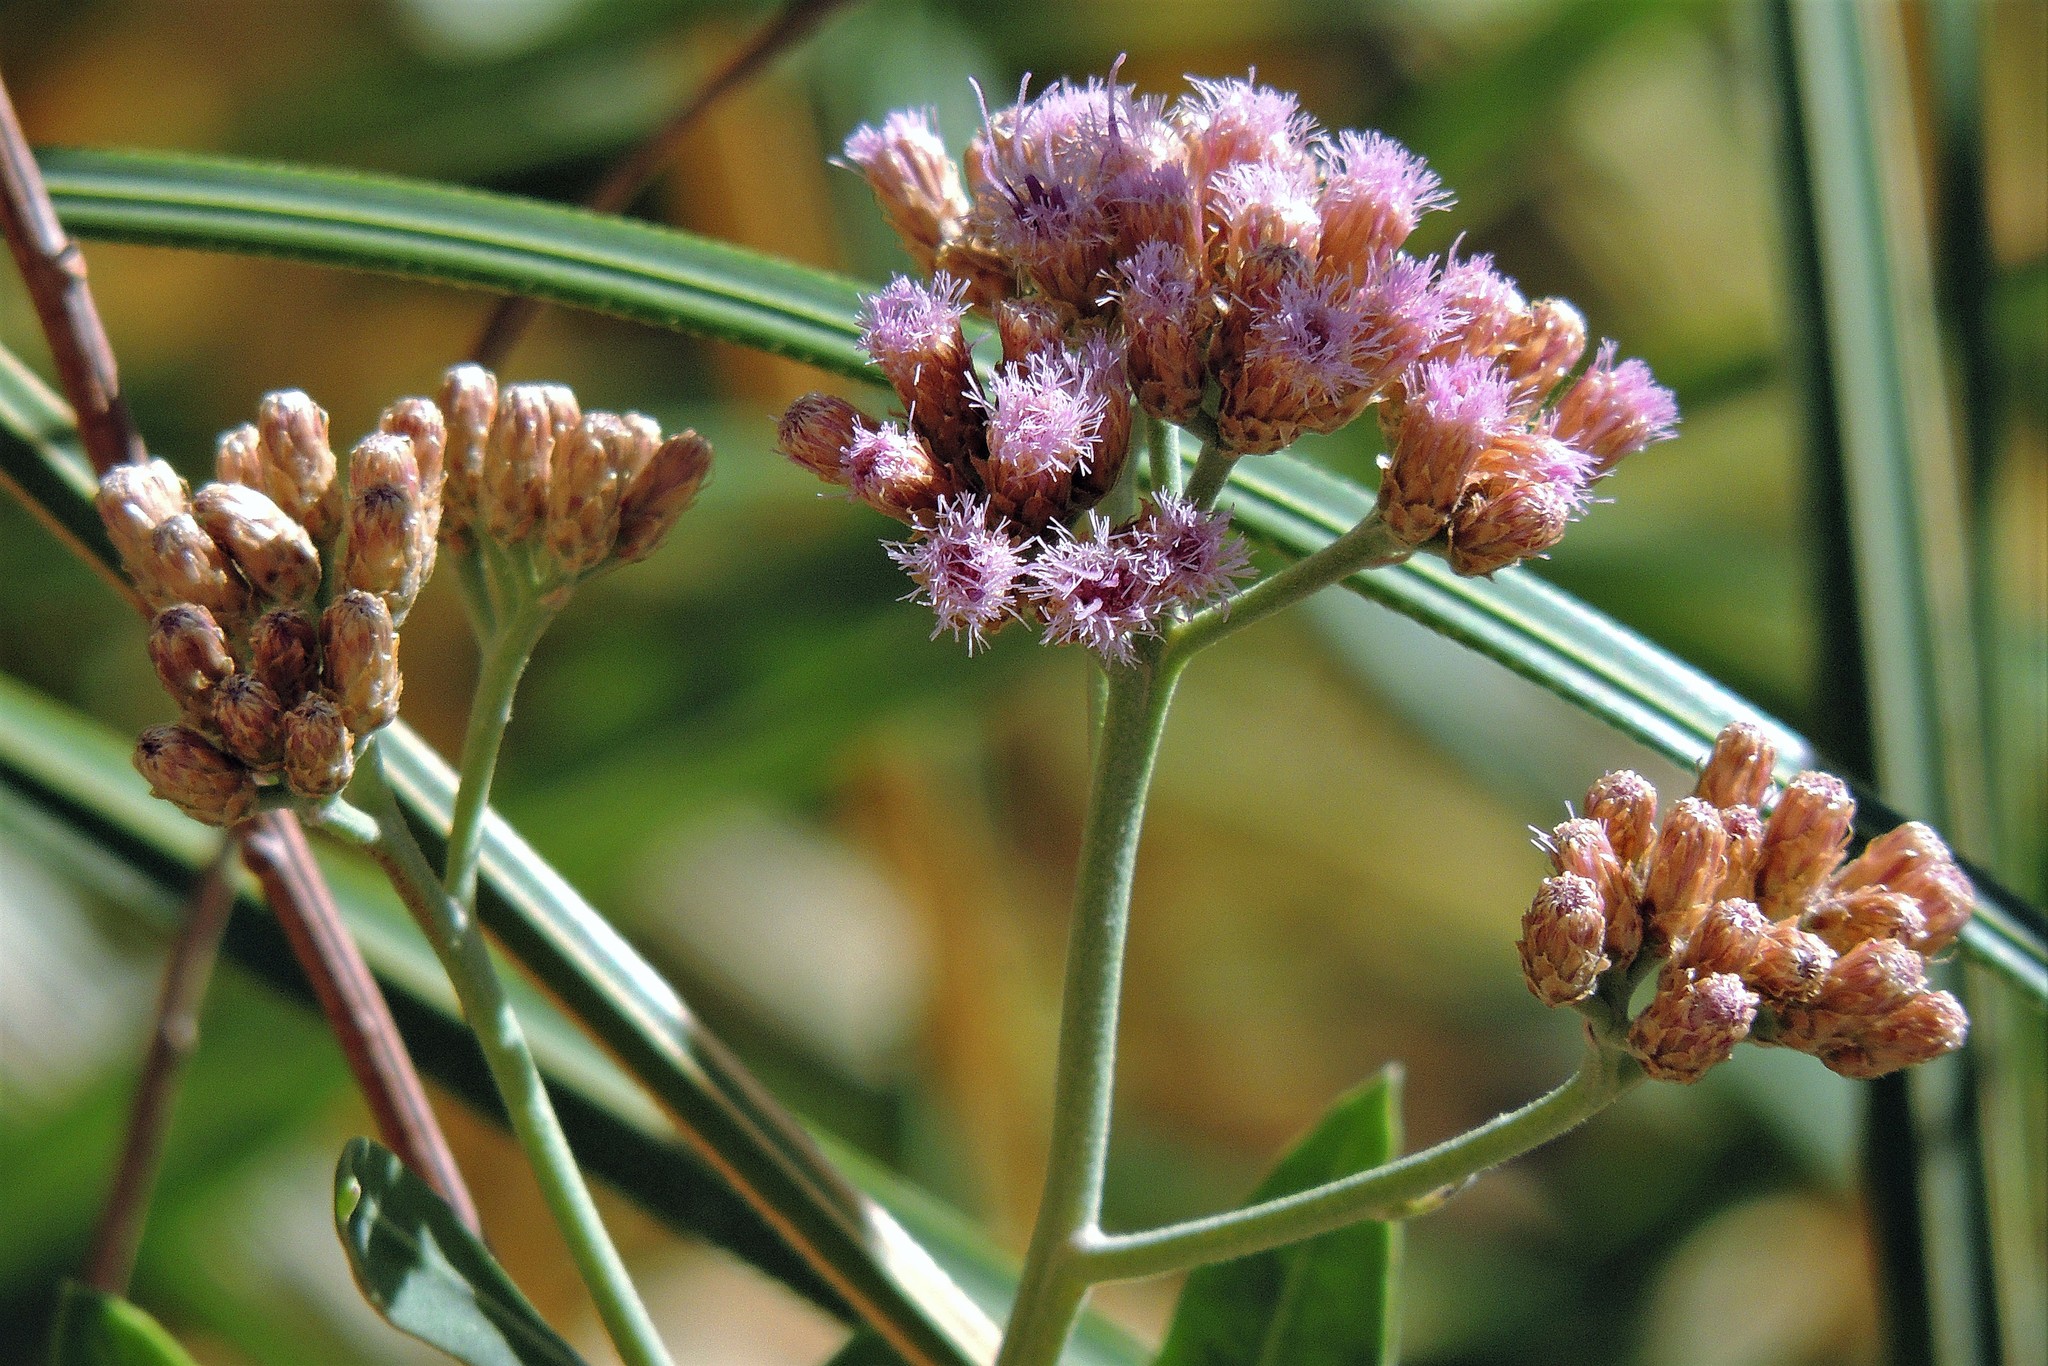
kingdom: Plantae
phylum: Tracheophyta
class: Magnoliopsida
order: Asterales
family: Asteraceae
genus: Tessaria
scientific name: Tessaria absinthioides
